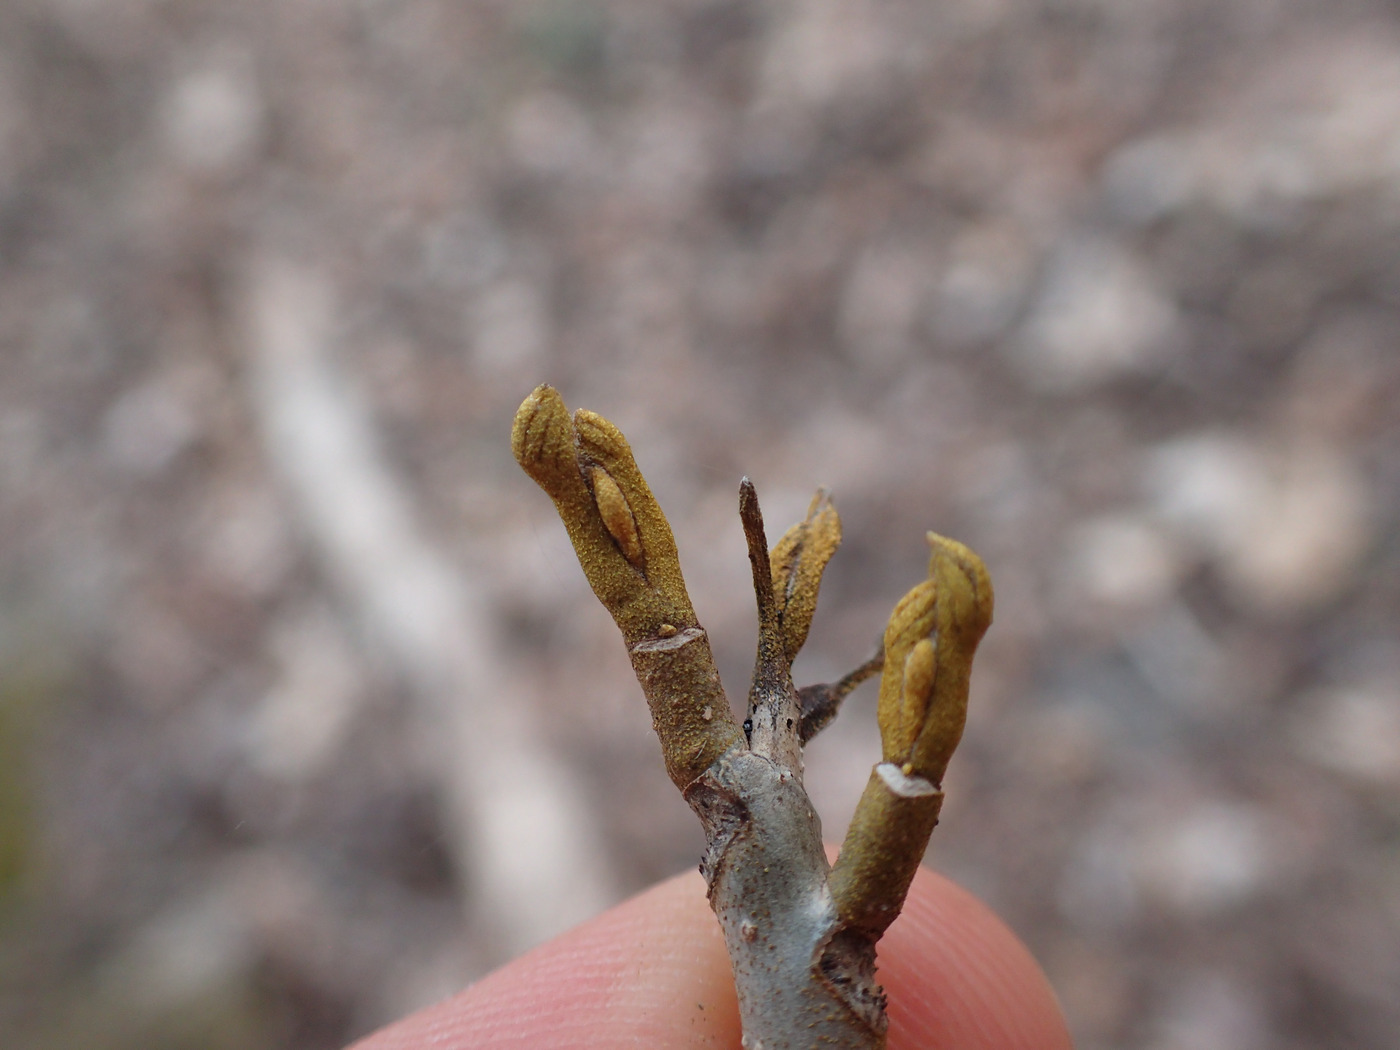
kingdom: Plantae
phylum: Tracheophyta
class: Magnoliopsida
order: Fagales
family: Juglandaceae
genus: Carya
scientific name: Carya cordiformis
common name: Bitternut hickory
